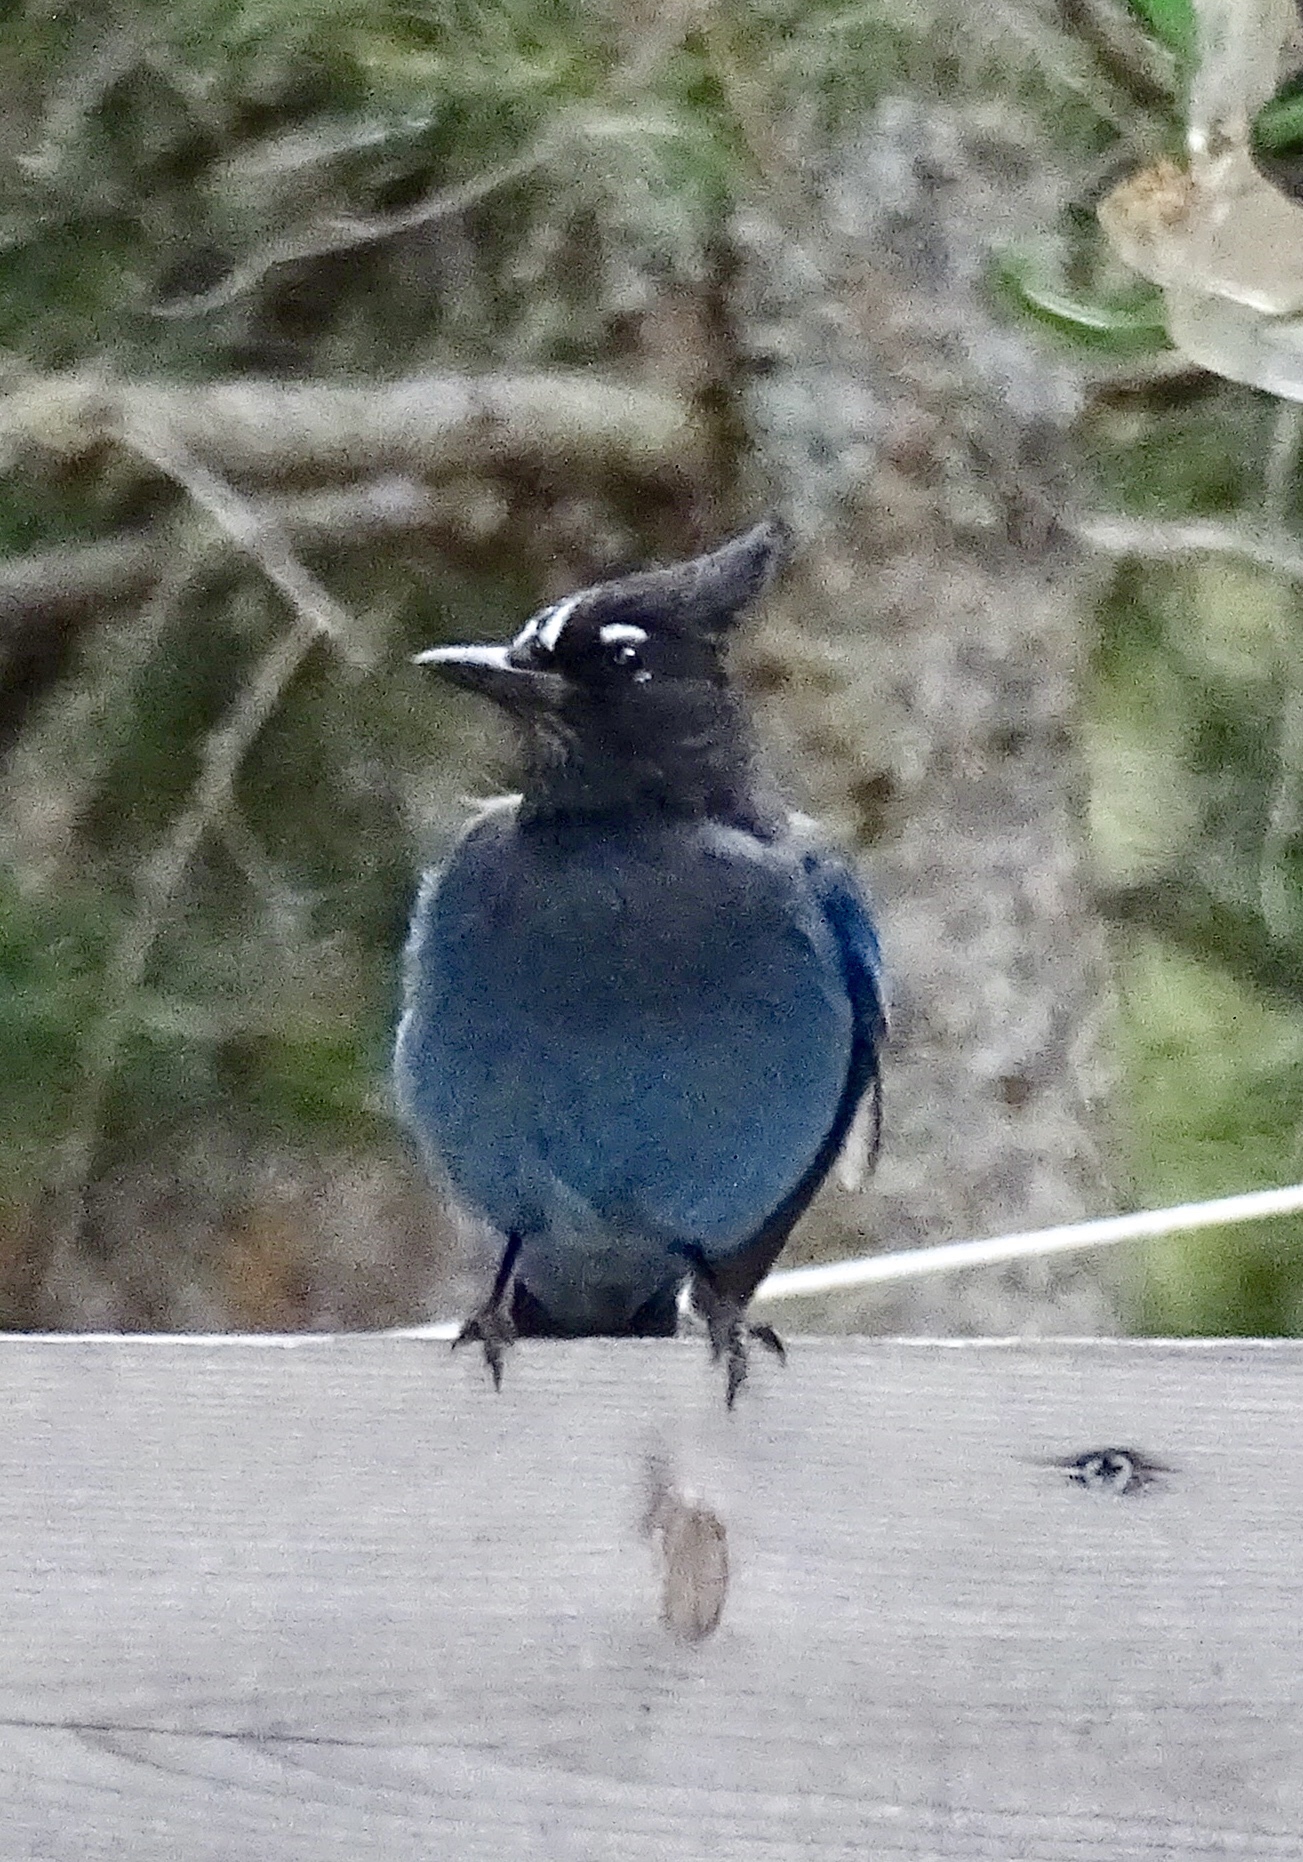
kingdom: Animalia
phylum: Chordata
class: Aves
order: Passeriformes
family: Corvidae
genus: Cyanocitta
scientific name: Cyanocitta stelleri
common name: Steller's jay
